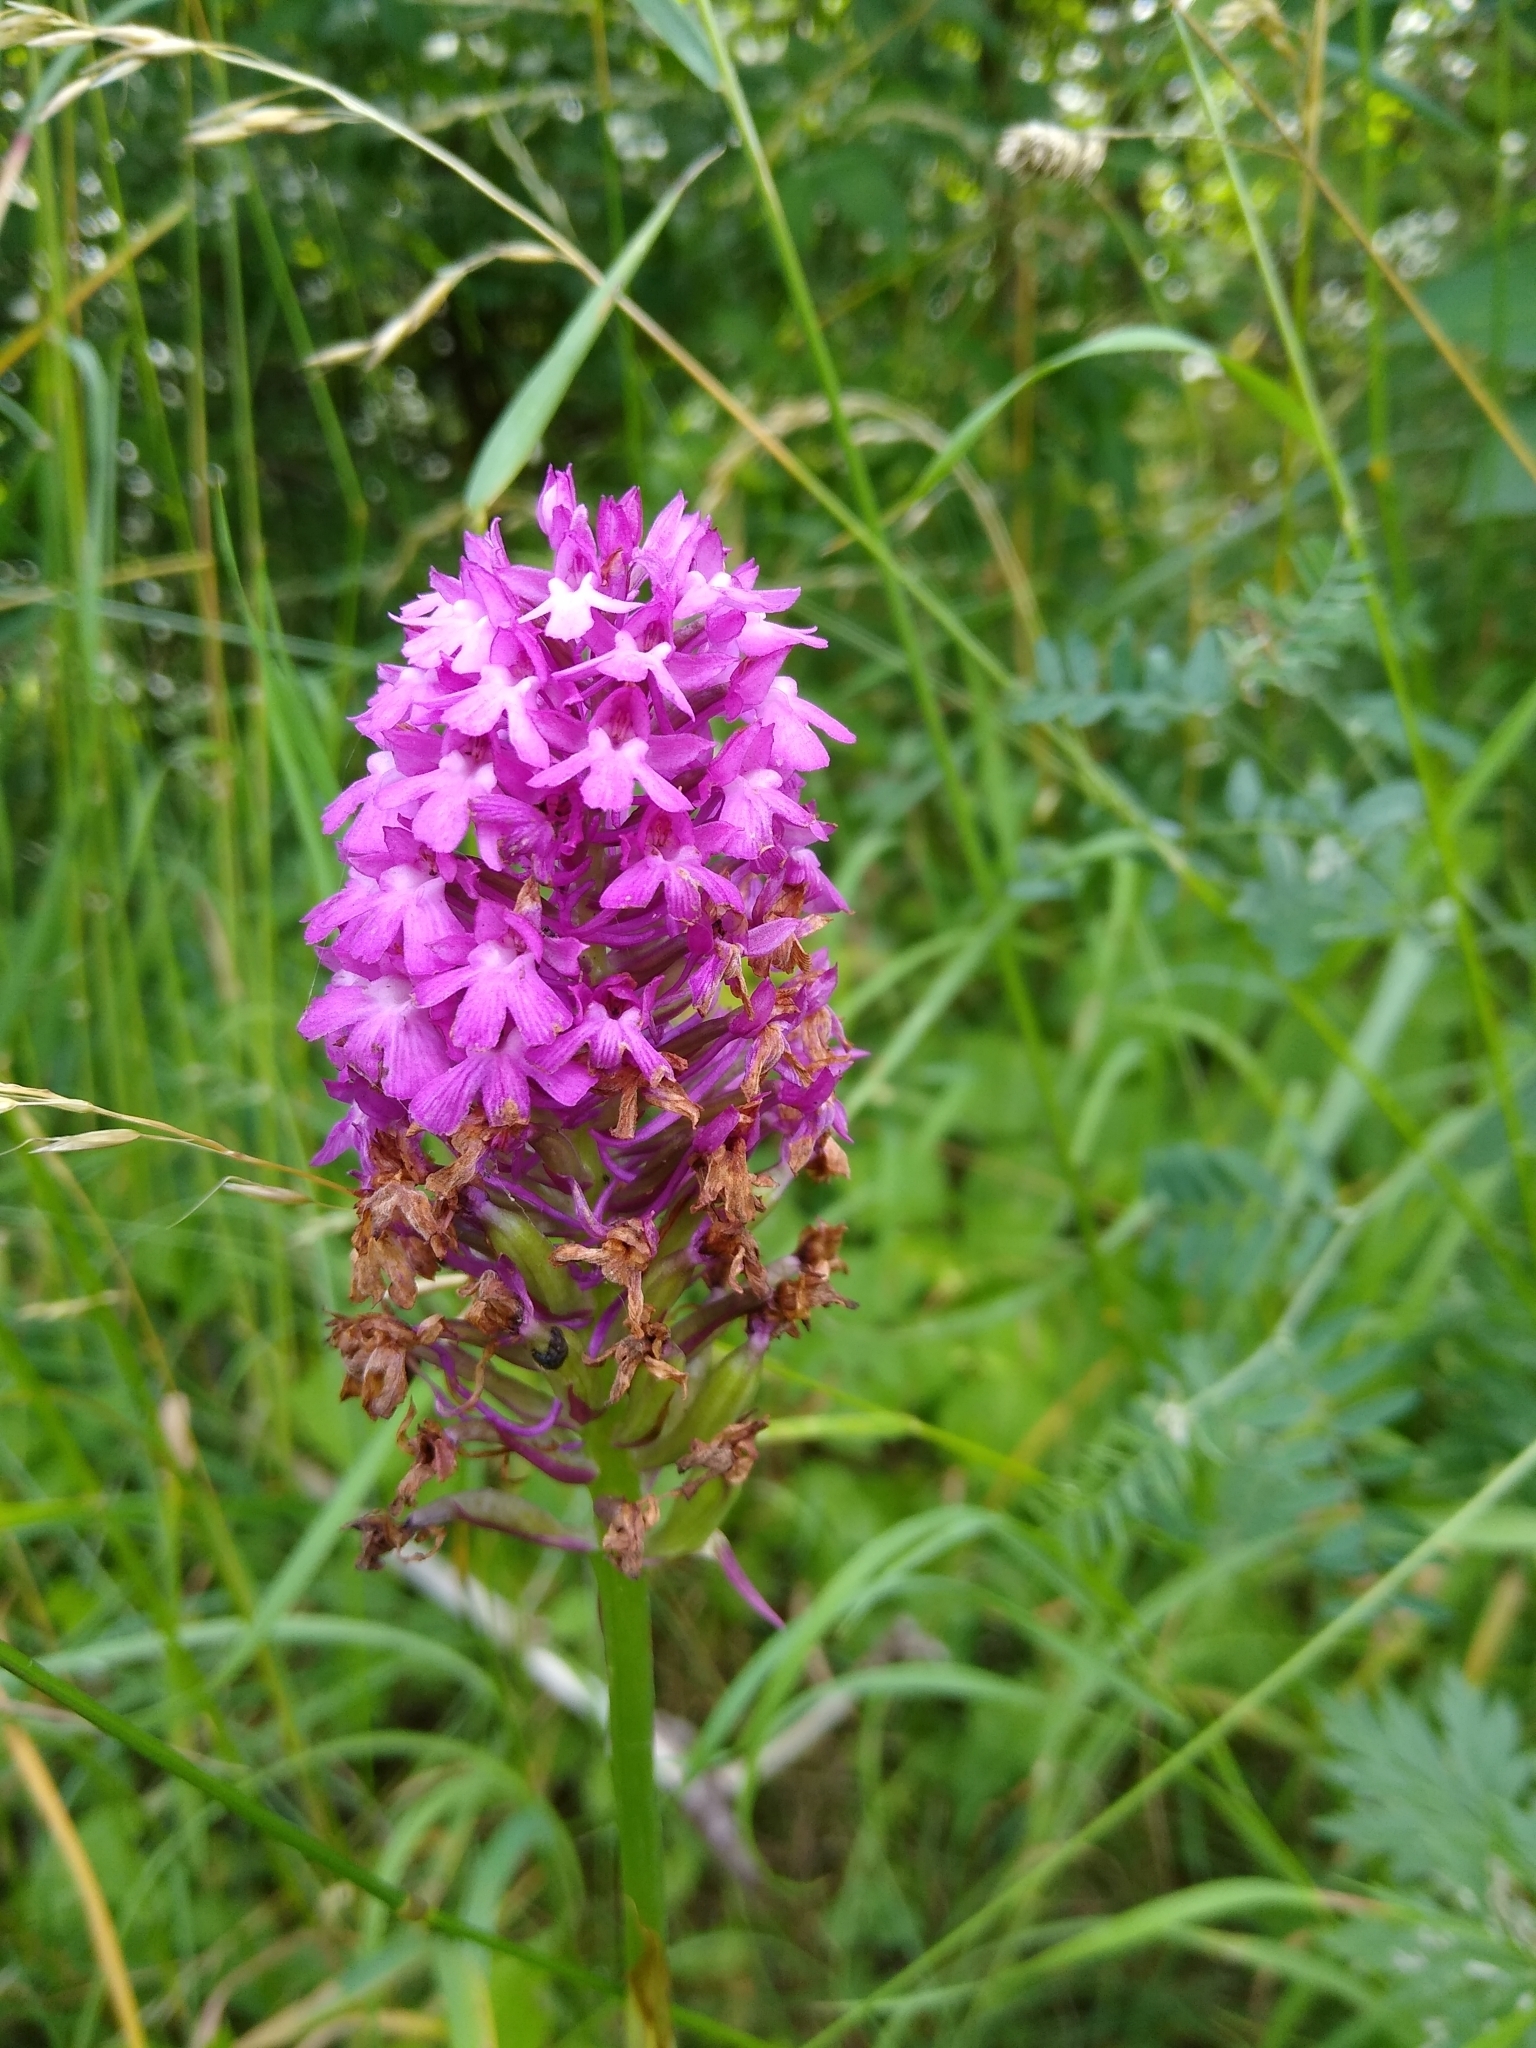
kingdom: Plantae
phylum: Tracheophyta
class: Liliopsida
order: Asparagales
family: Orchidaceae
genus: Anacamptis
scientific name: Anacamptis pyramidalis
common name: Pyramidal orchid
